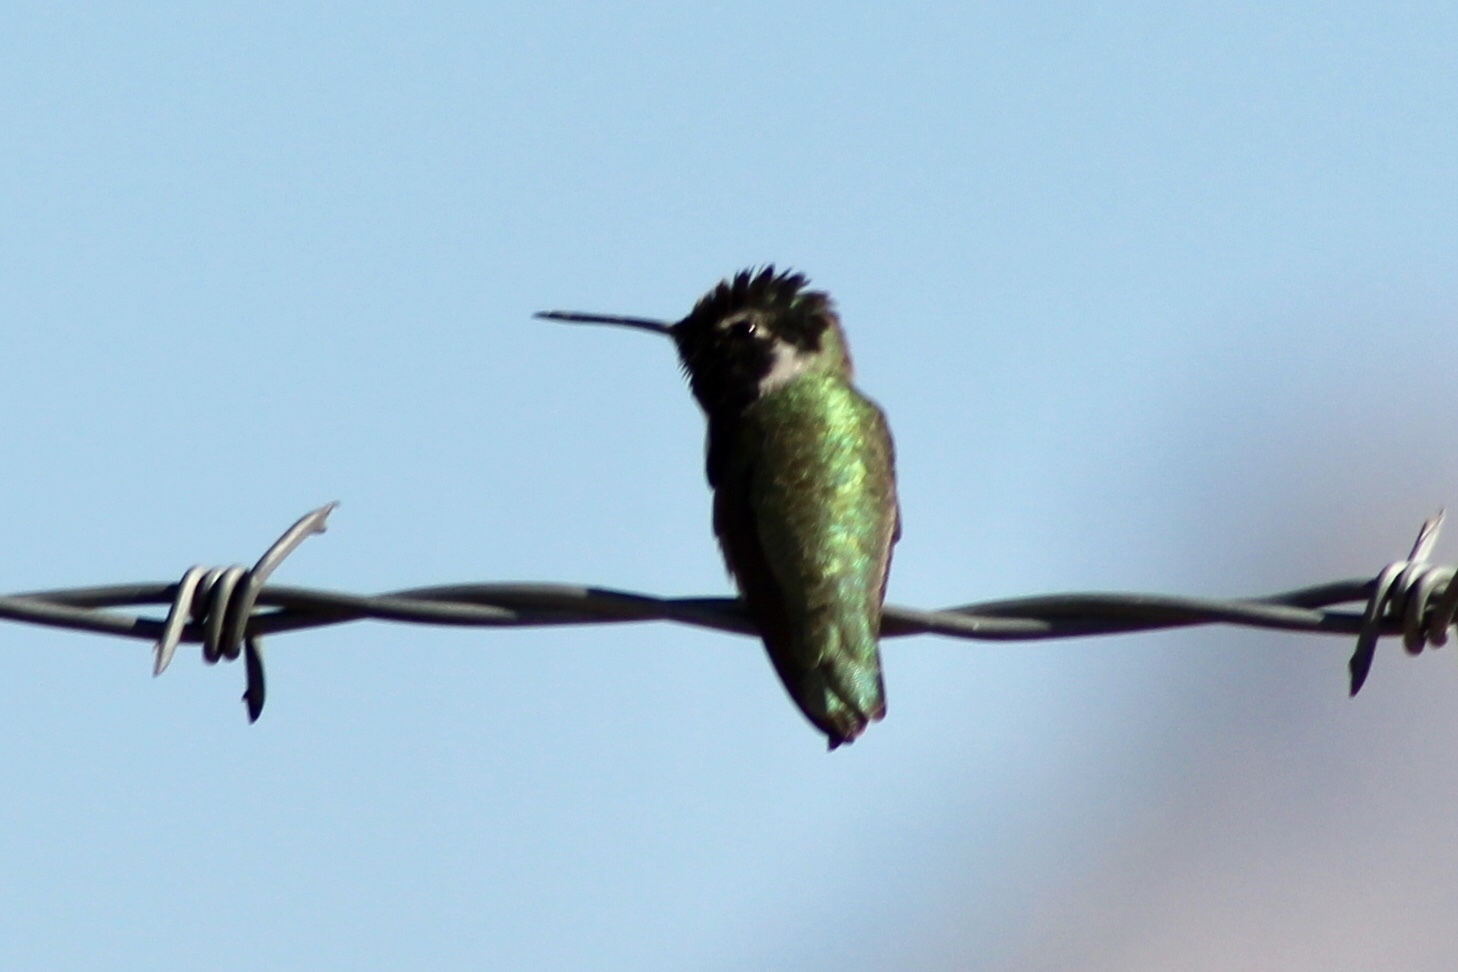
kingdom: Animalia
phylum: Chordata
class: Aves
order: Apodiformes
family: Trochilidae
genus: Calypte
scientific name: Calypte costae
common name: Costa's hummingbird
